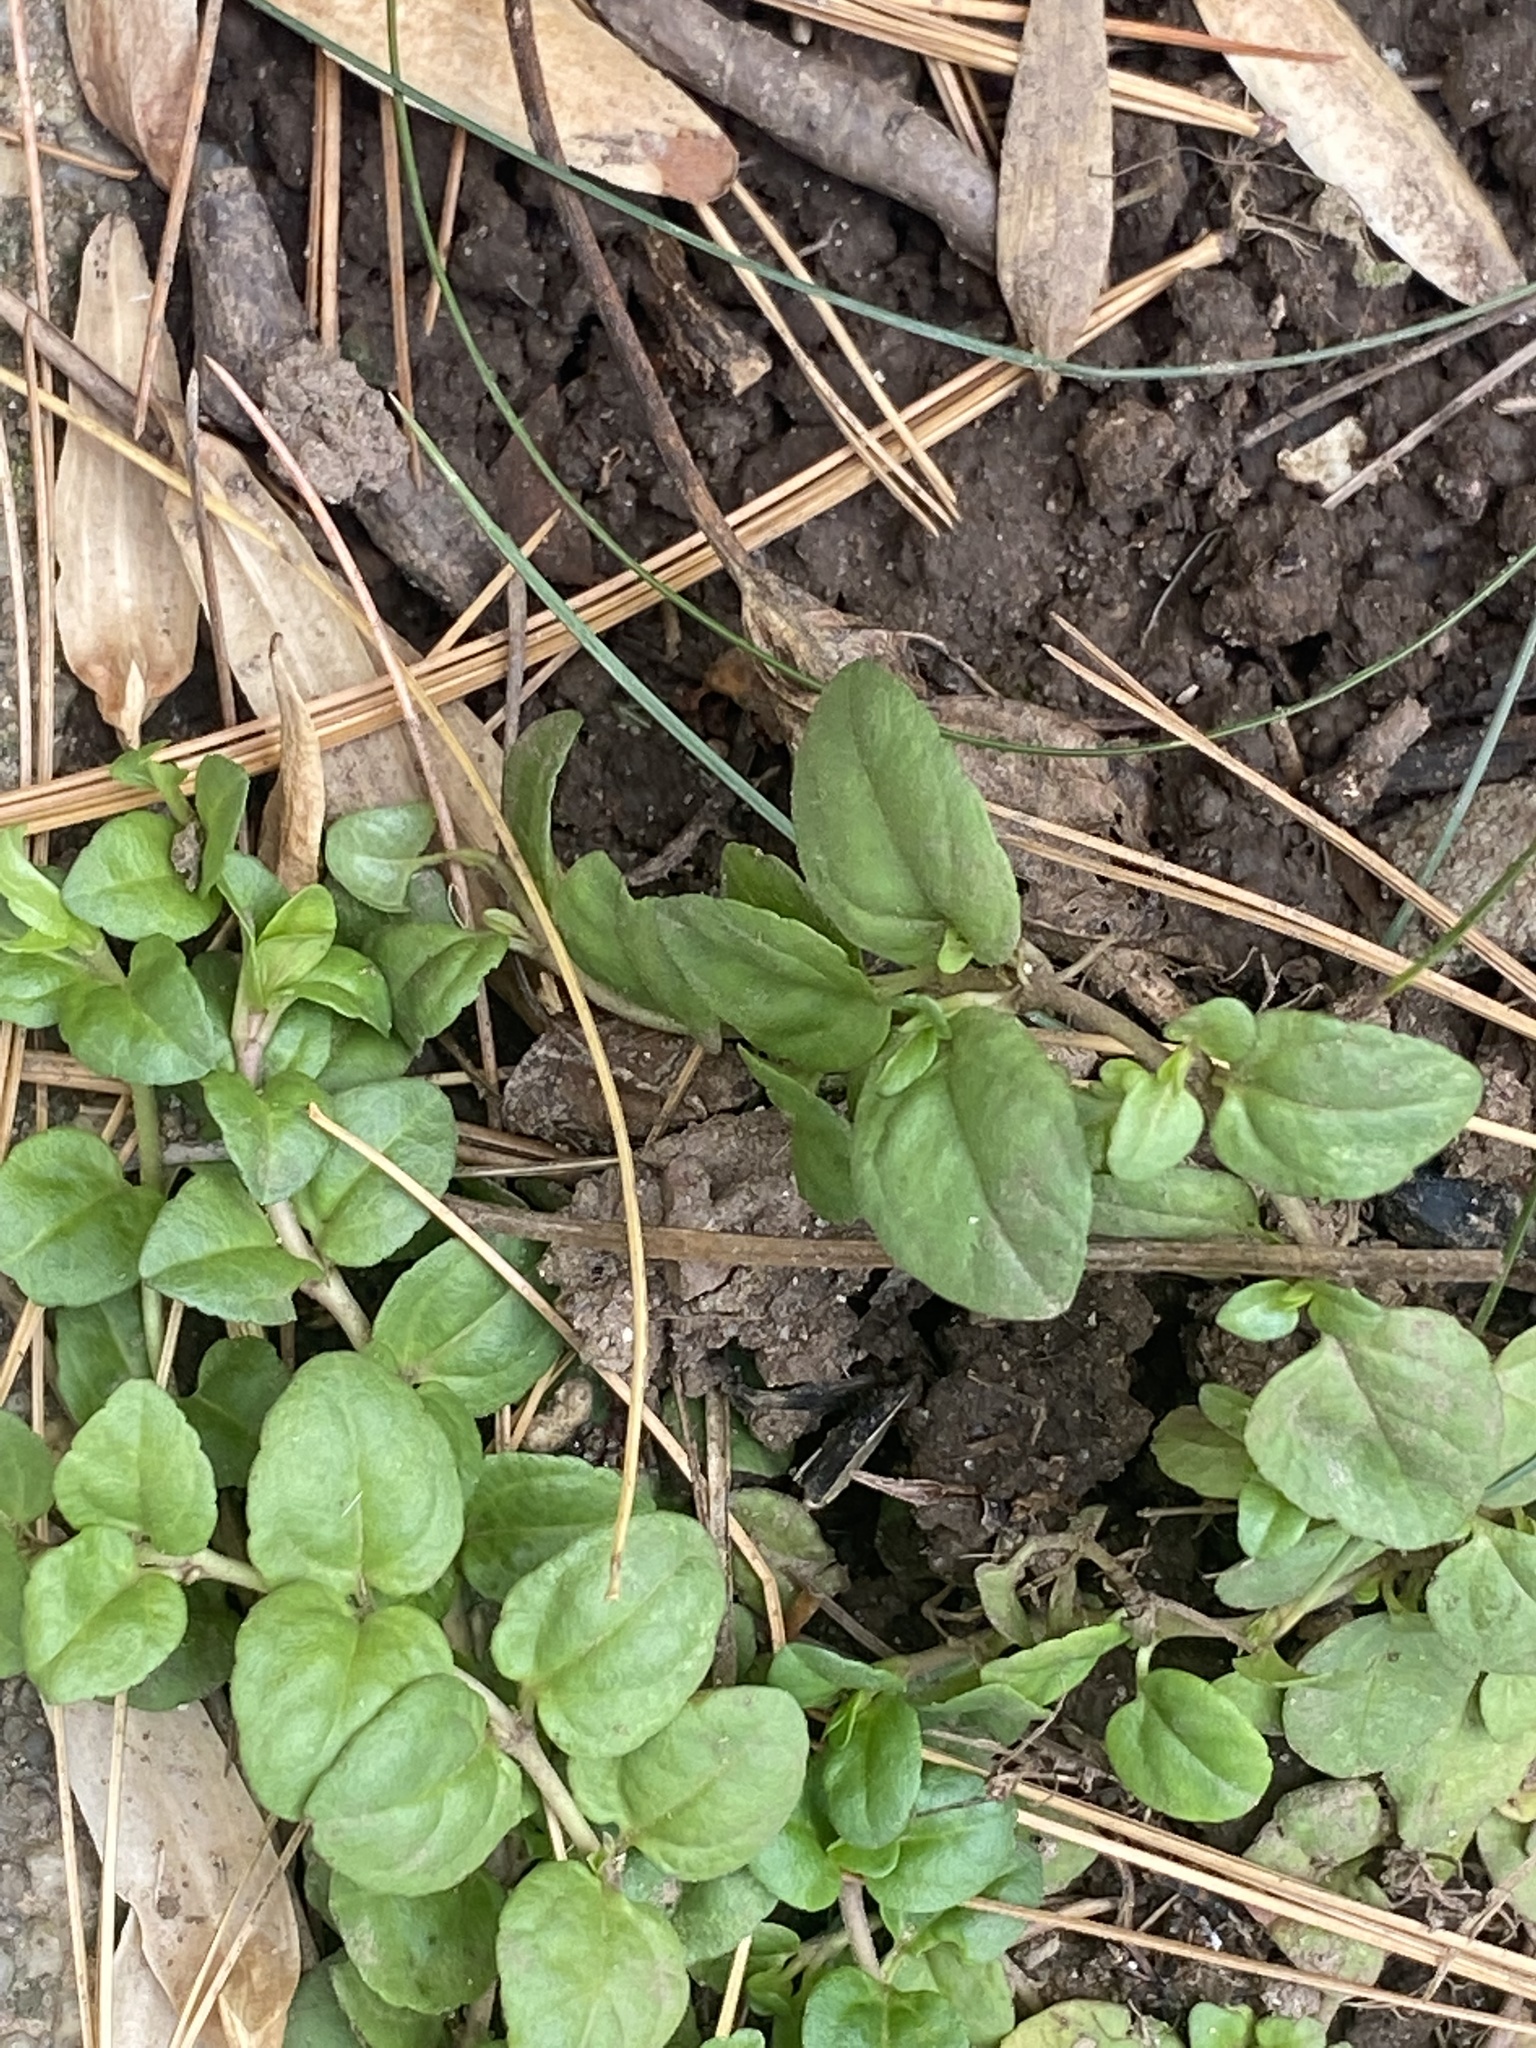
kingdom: Plantae
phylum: Tracheophyta
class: Magnoliopsida
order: Lamiales
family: Plantaginaceae
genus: Veronica
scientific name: Veronica serpyllifolia
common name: Thyme-leaved speedwell
